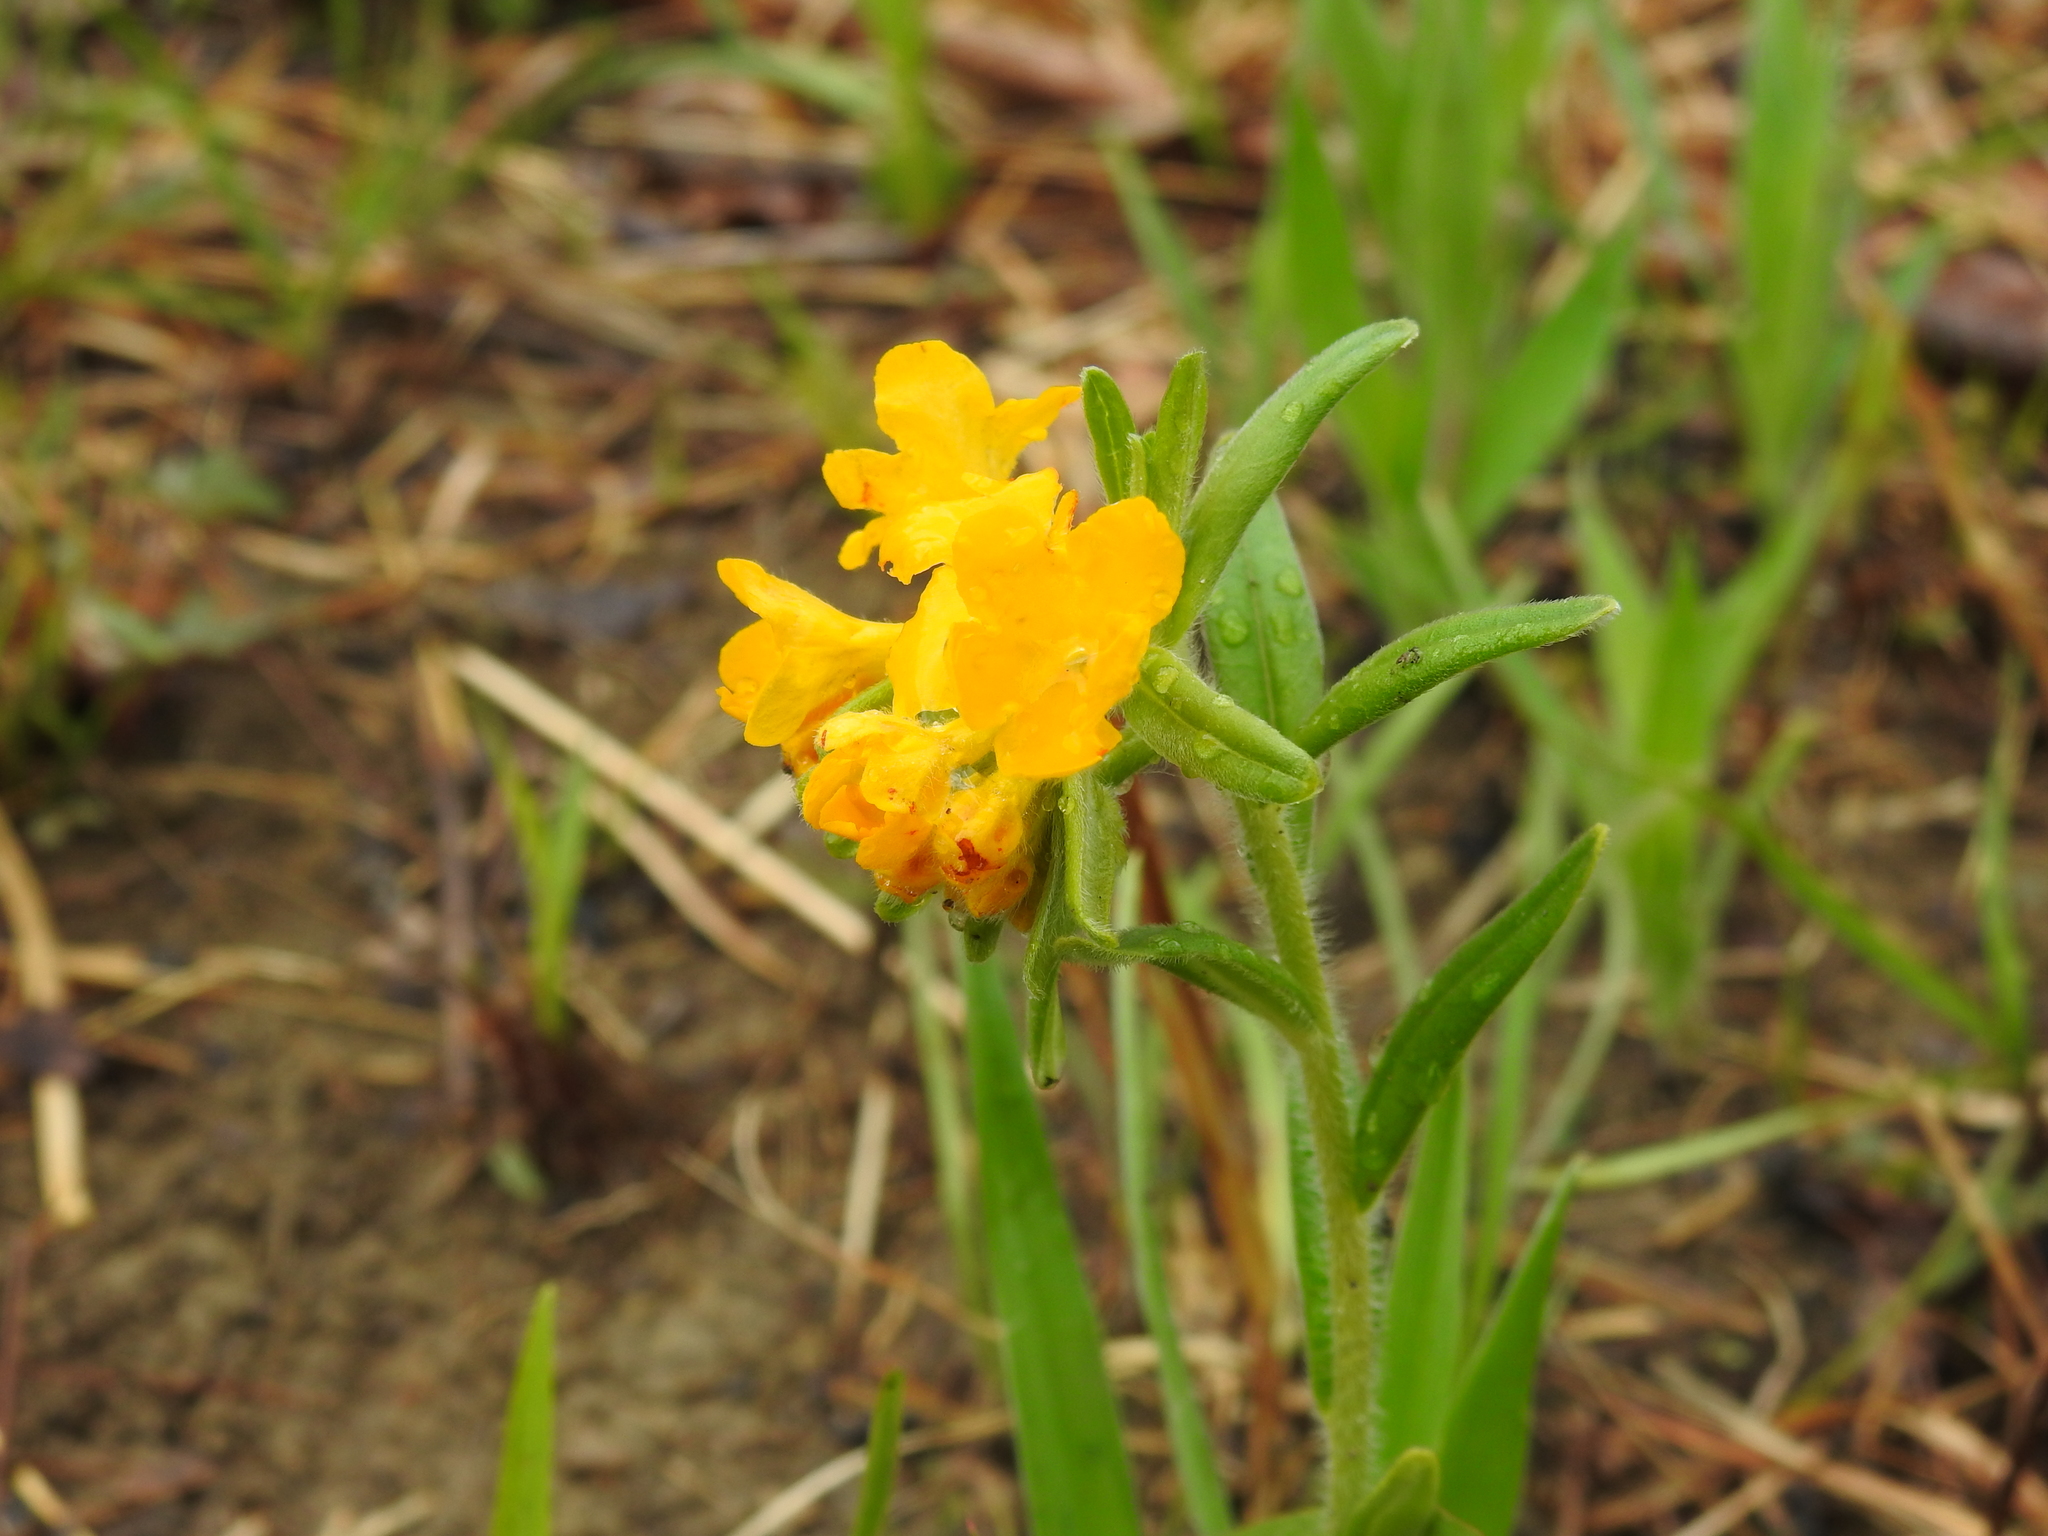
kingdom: Plantae
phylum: Tracheophyta
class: Magnoliopsida
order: Boraginales
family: Boraginaceae
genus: Lithospermum
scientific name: Lithospermum canescens
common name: Hoary puccoon
